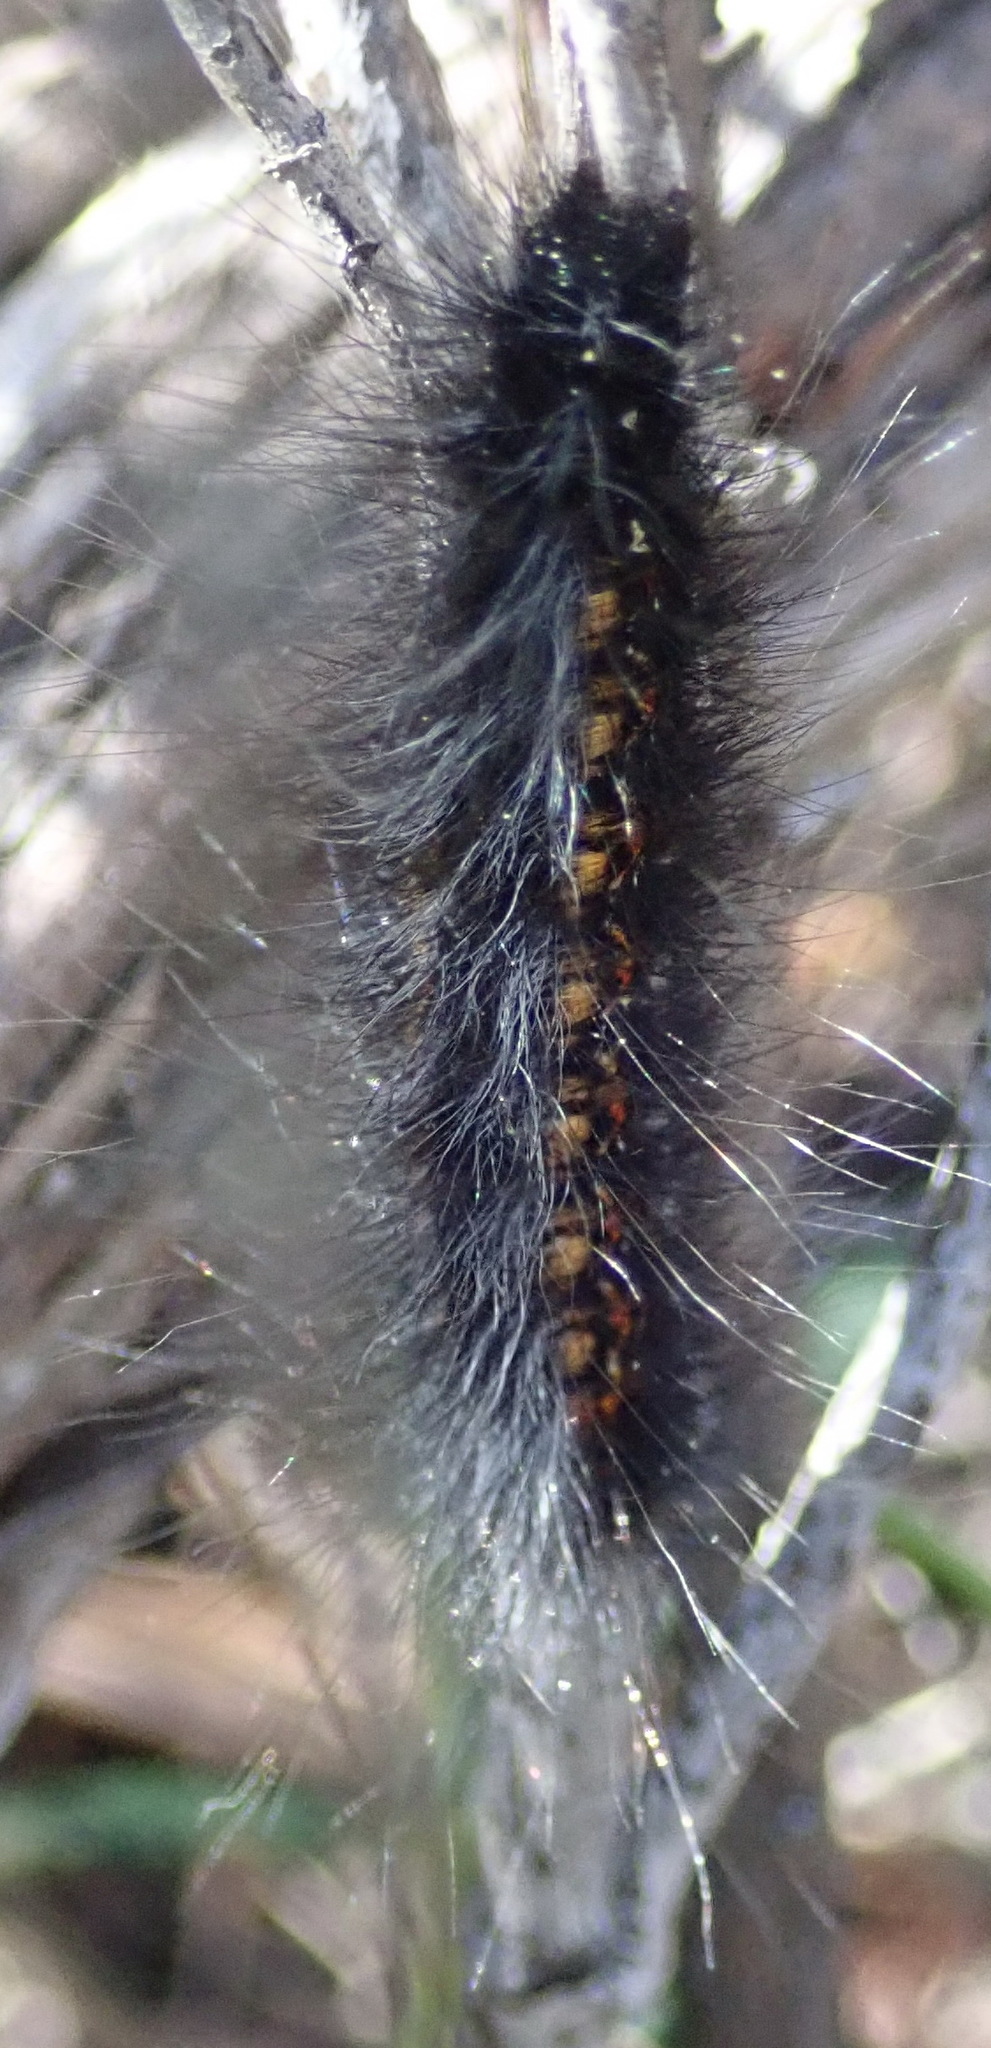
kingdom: Animalia
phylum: Arthropoda
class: Insecta
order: Lepidoptera
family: Lasiocampidae
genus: Mesocelis
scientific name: Mesocelis monticola
